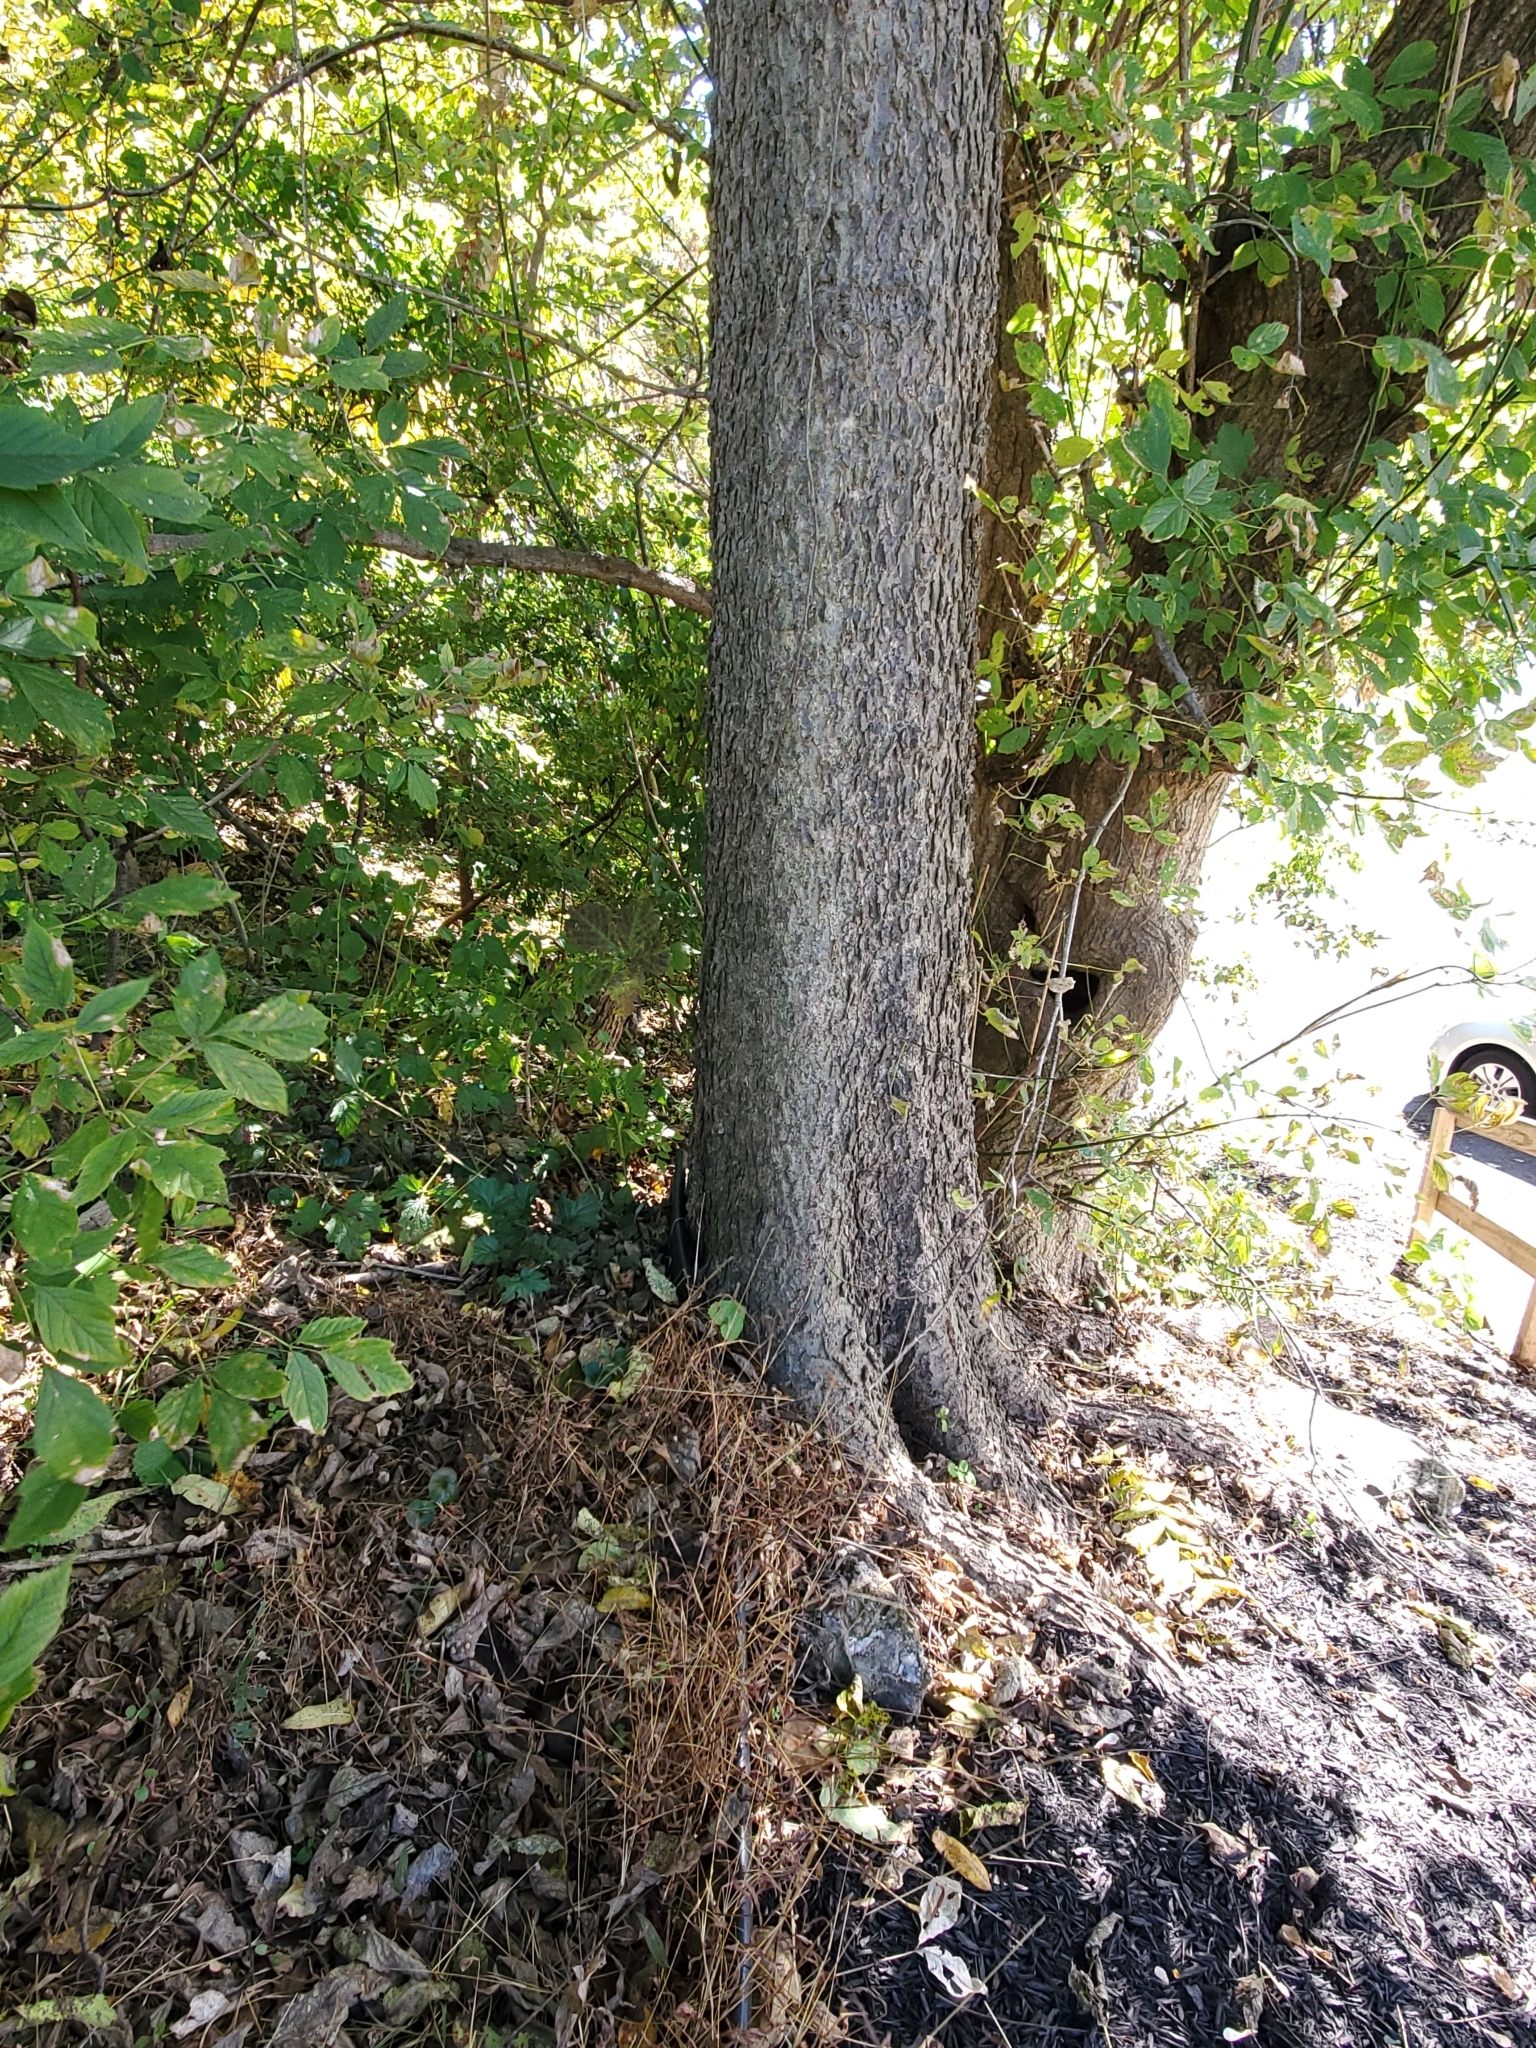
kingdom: Plantae
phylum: Tracheophyta
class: Magnoliopsida
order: Rosales
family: Cannabaceae
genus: Celtis
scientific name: Celtis occidentalis
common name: Common hackberry
